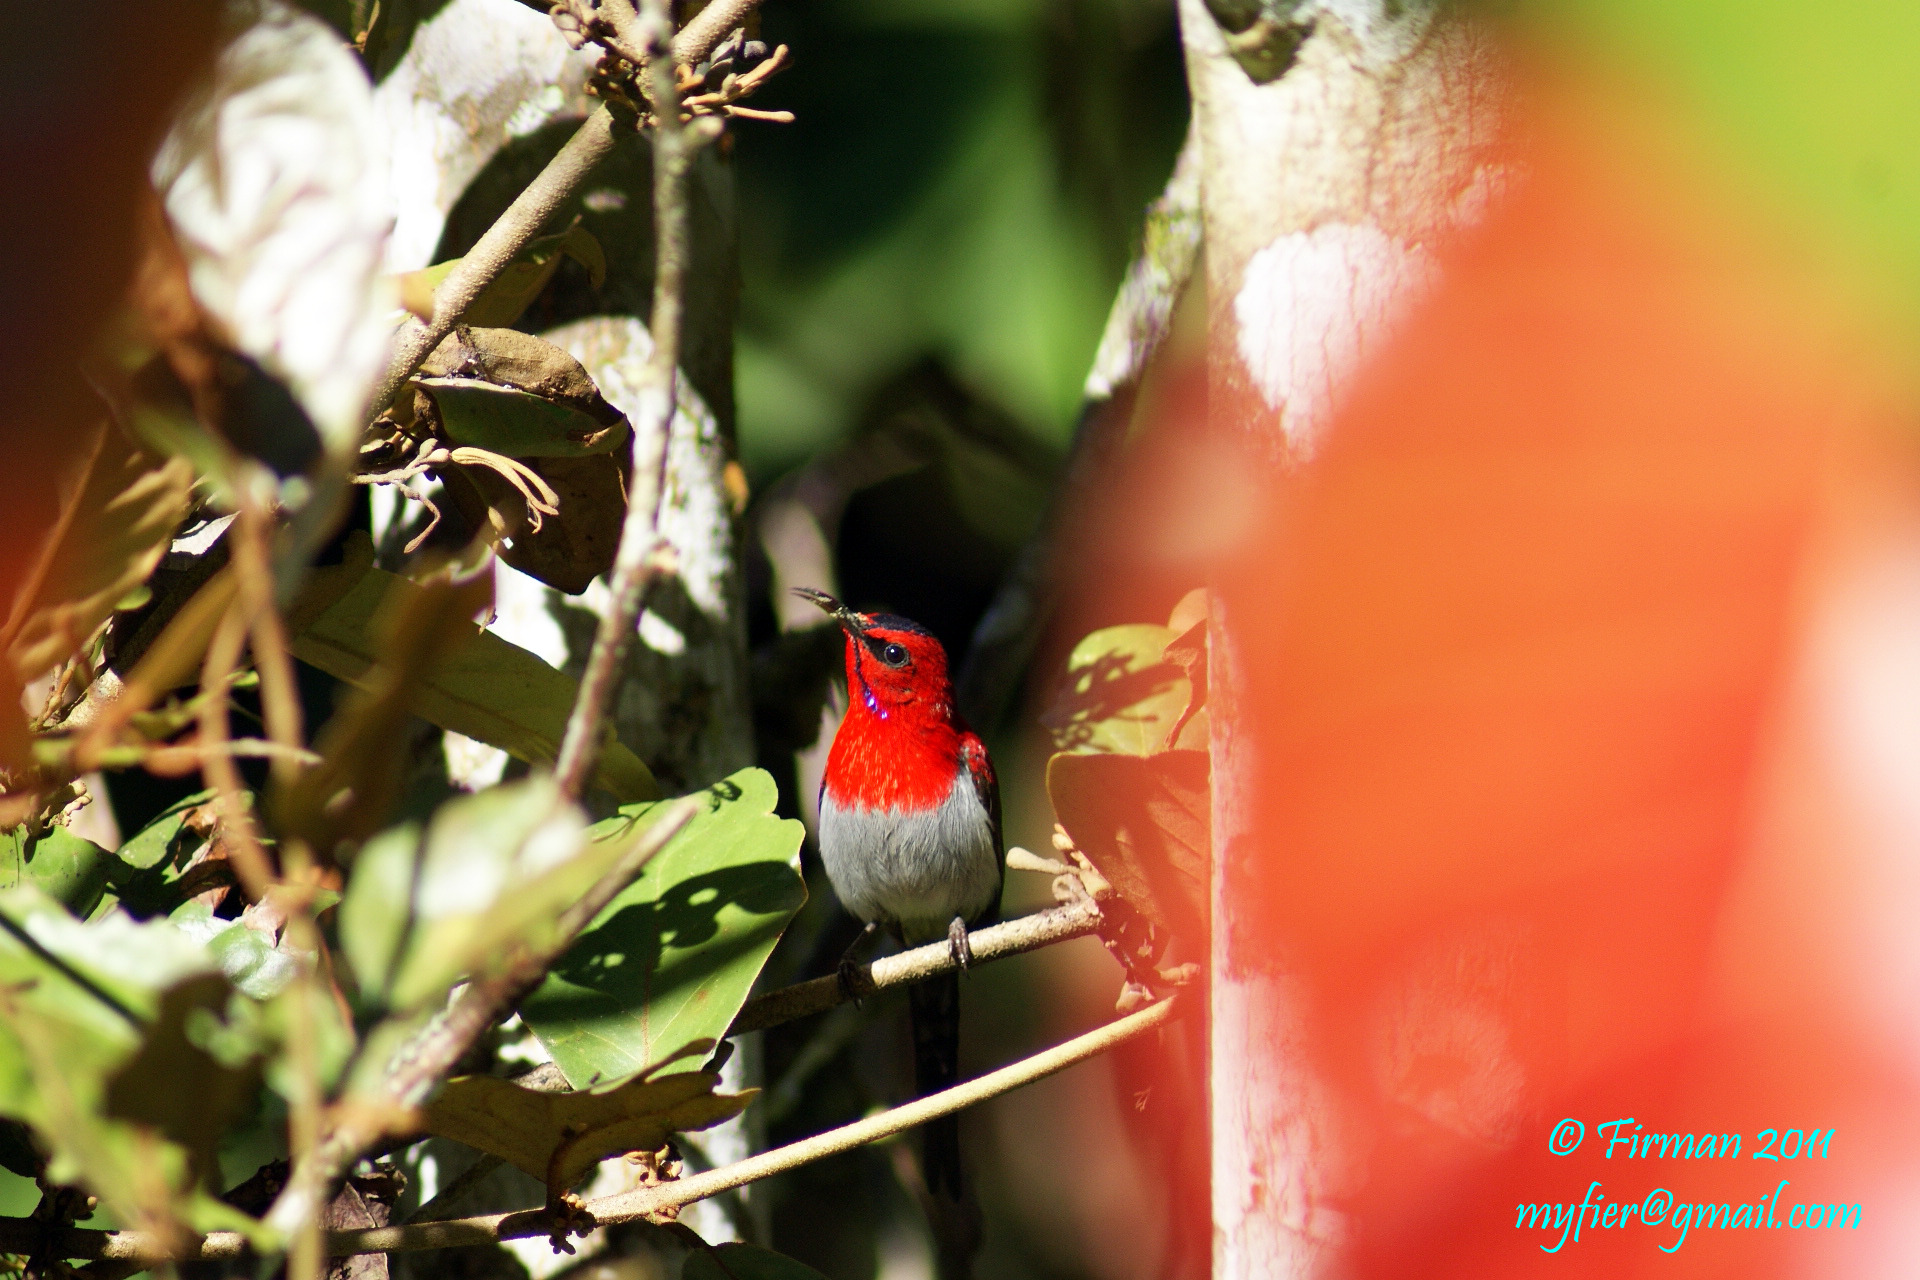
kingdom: Animalia
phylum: Chordata
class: Aves
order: Passeriformes
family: Nectariniidae
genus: Aethopyga
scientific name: Aethopyga mystacalis
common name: Javan sunbird
